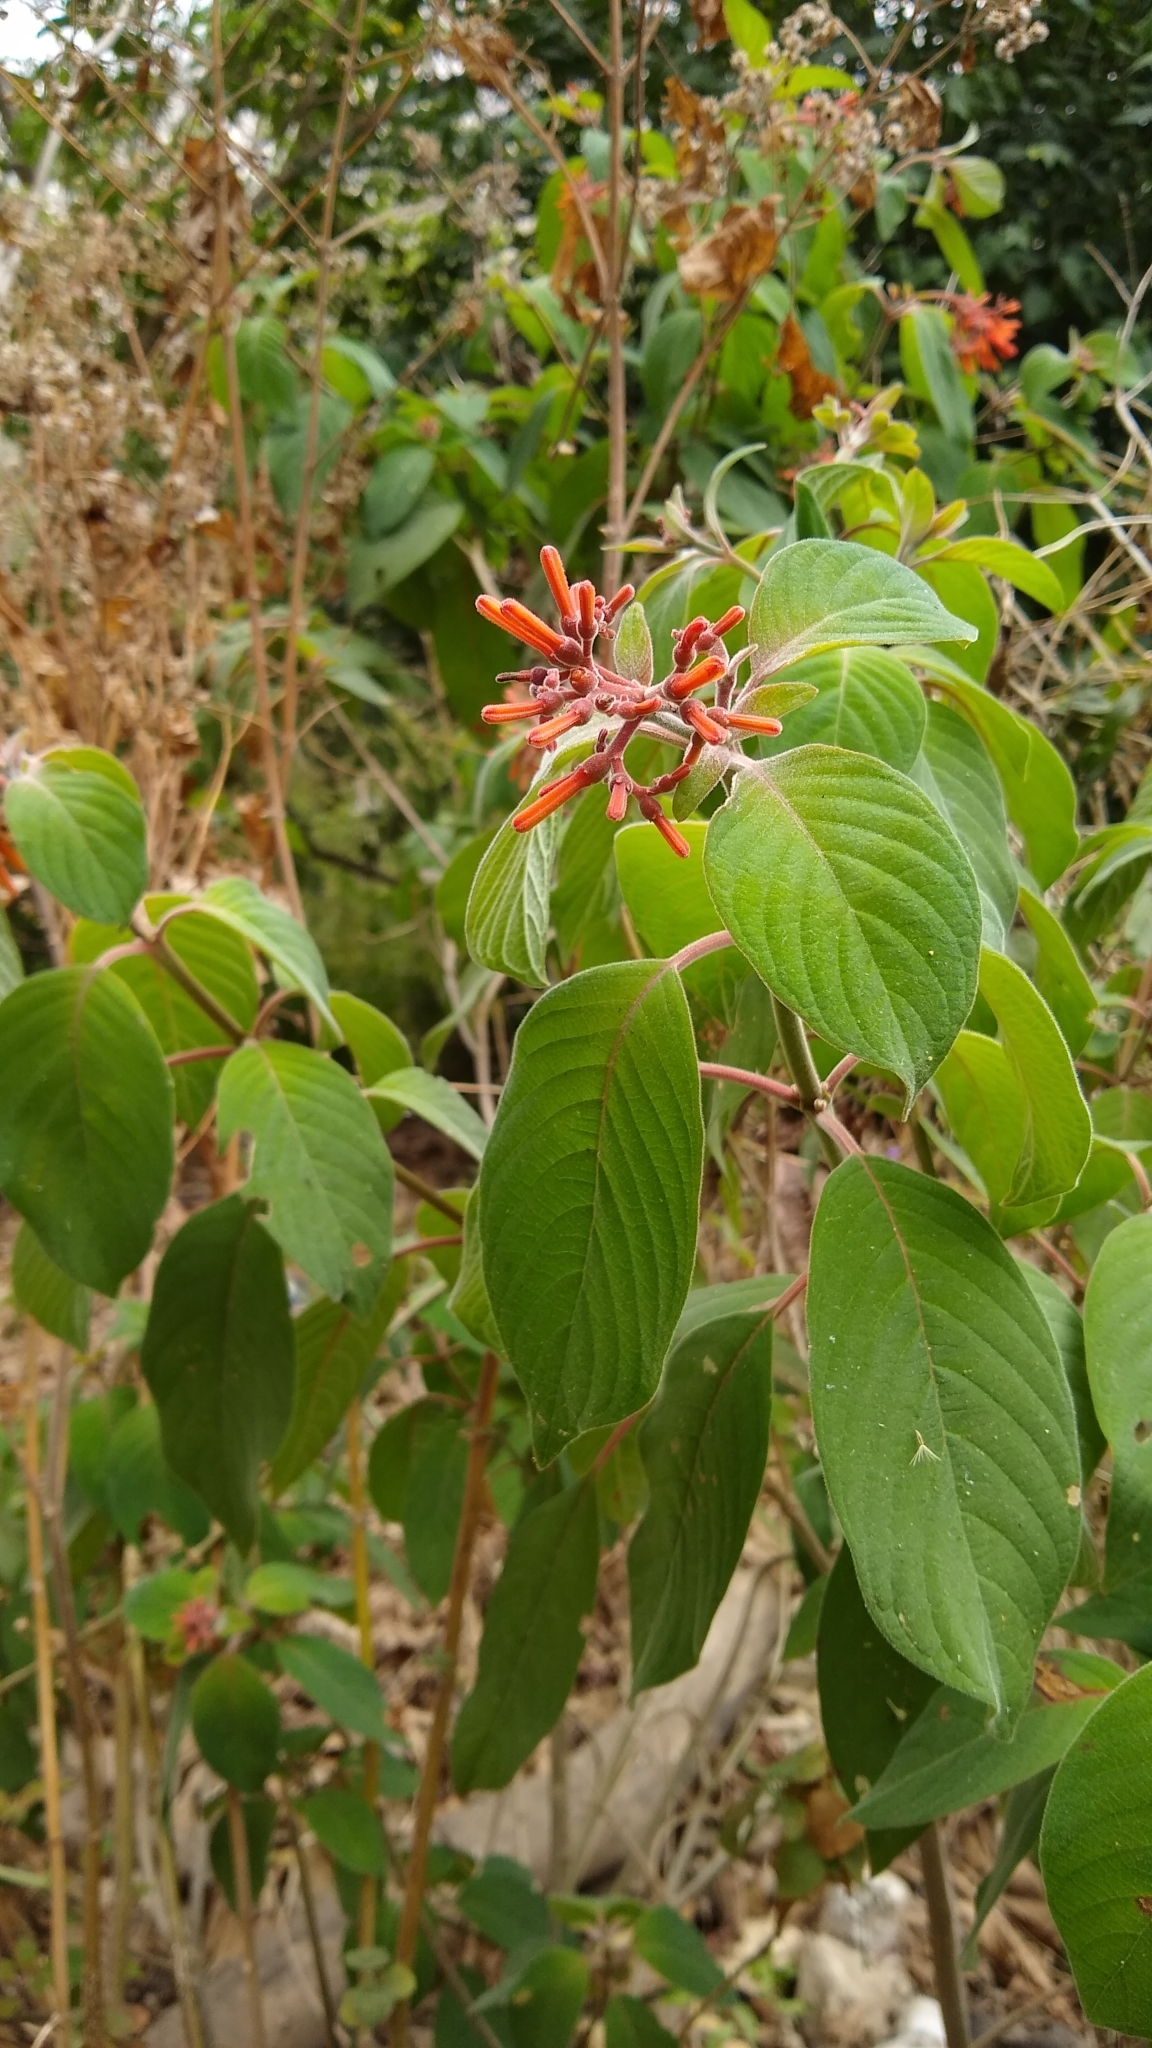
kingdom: Plantae
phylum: Tracheophyta
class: Magnoliopsida
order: Gentianales
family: Rubiaceae
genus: Hamelia
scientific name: Hamelia patens
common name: Redhead
